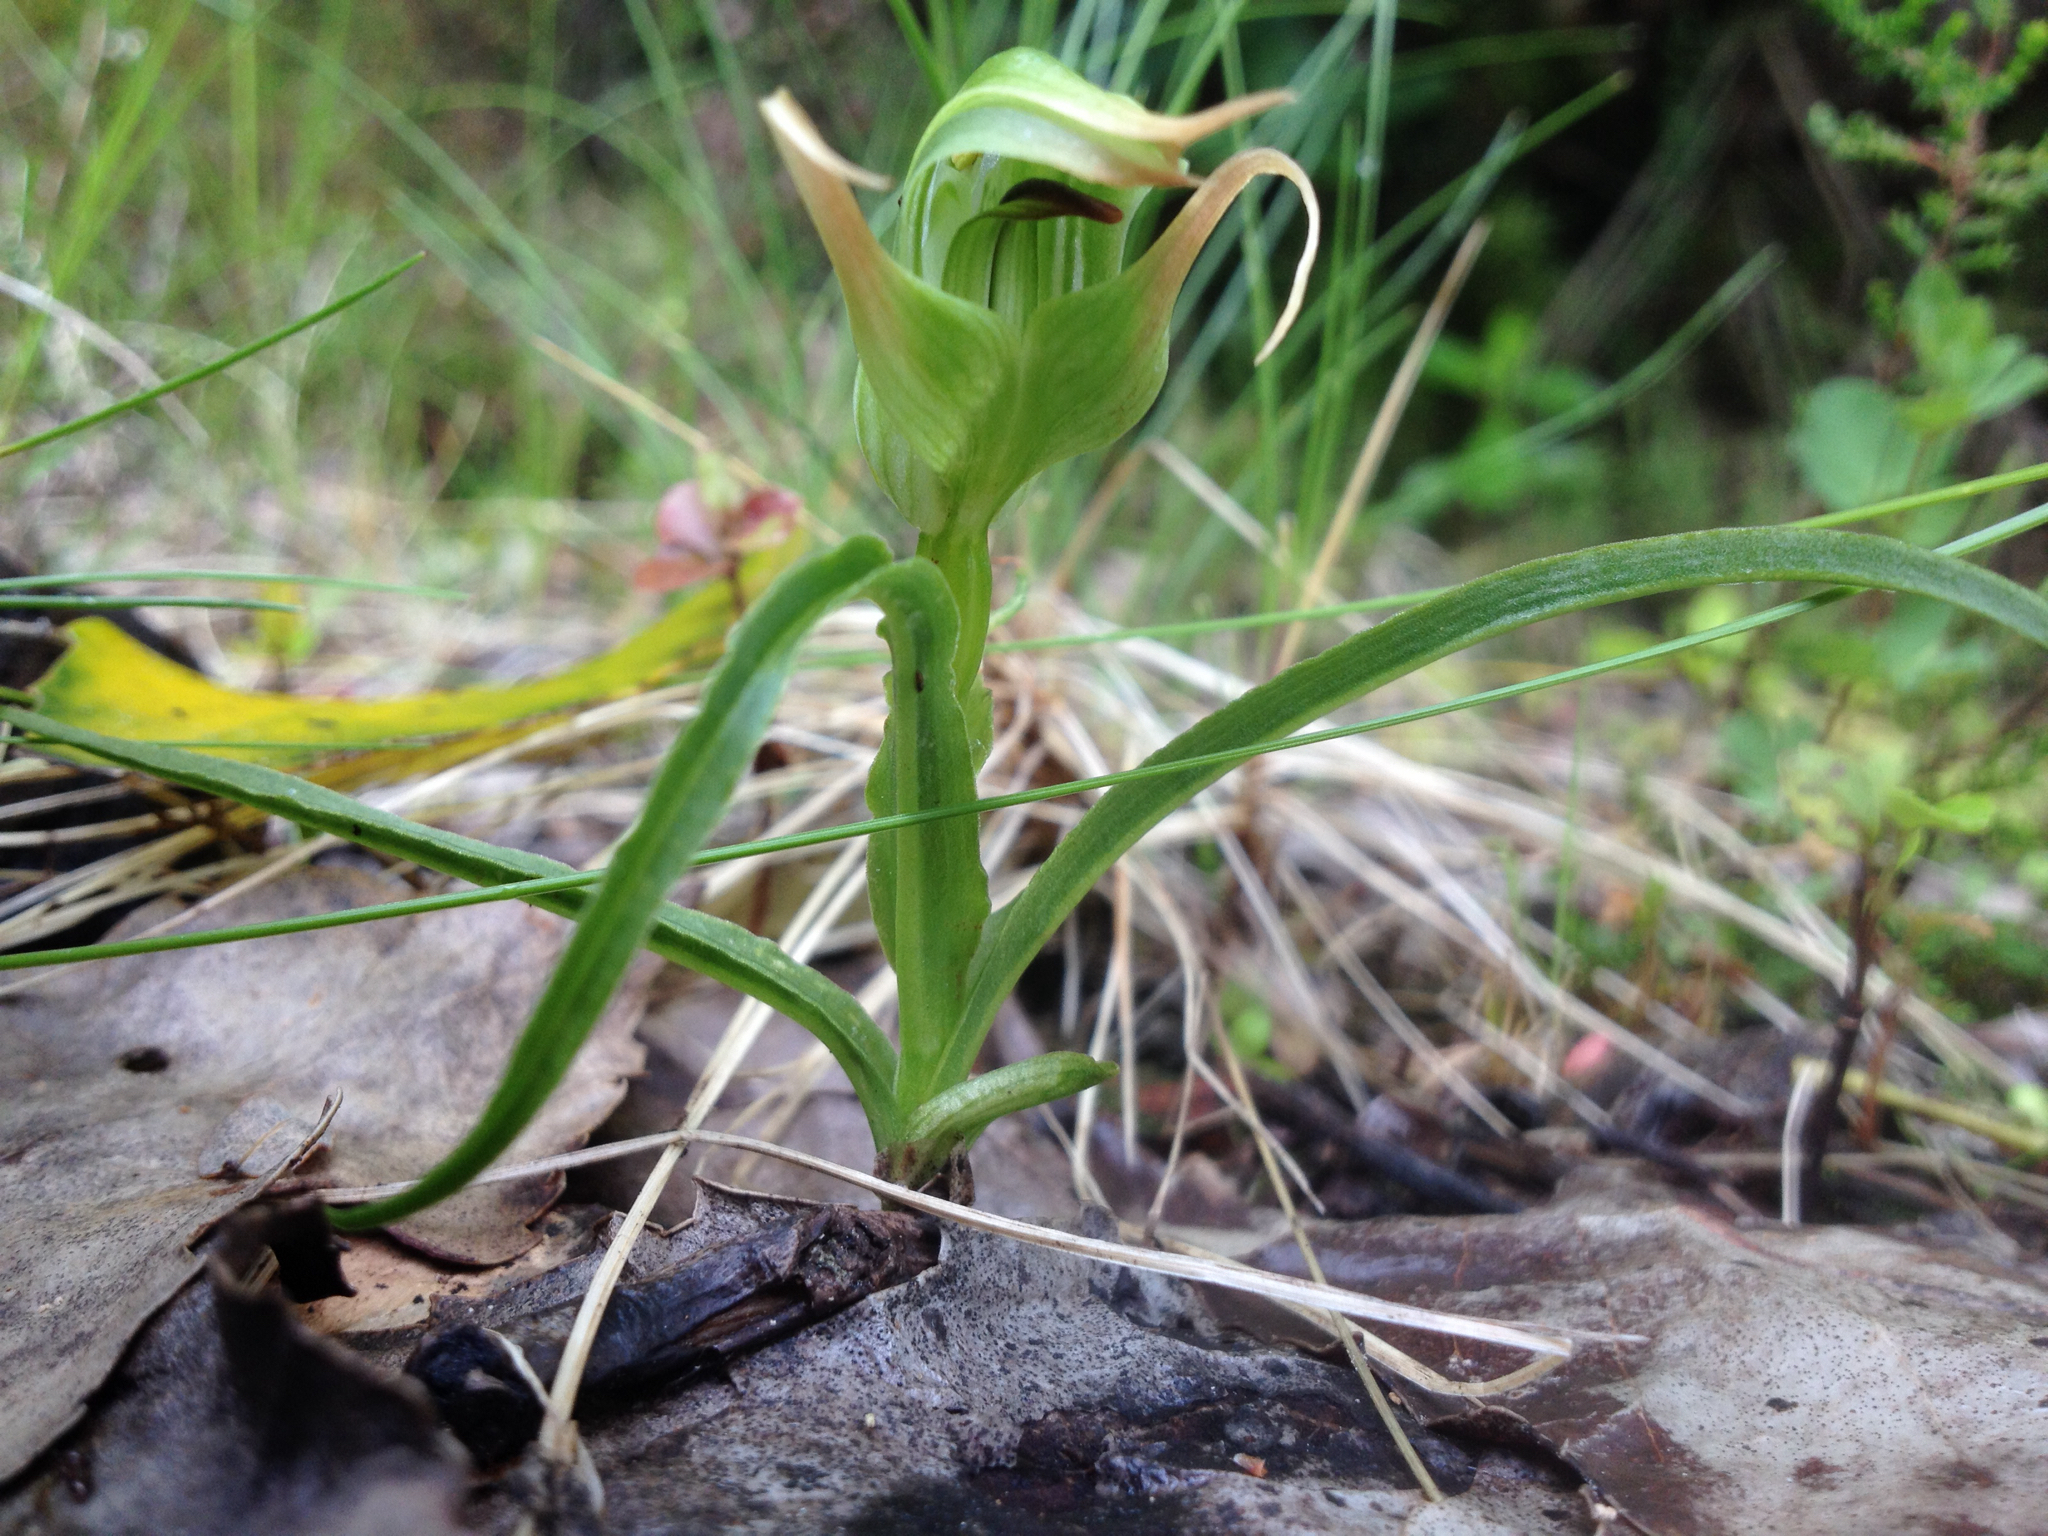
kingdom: Plantae
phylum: Tracheophyta
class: Liliopsida
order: Asparagales
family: Orchidaceae
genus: Pterostylis
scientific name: Pterostylis montana
